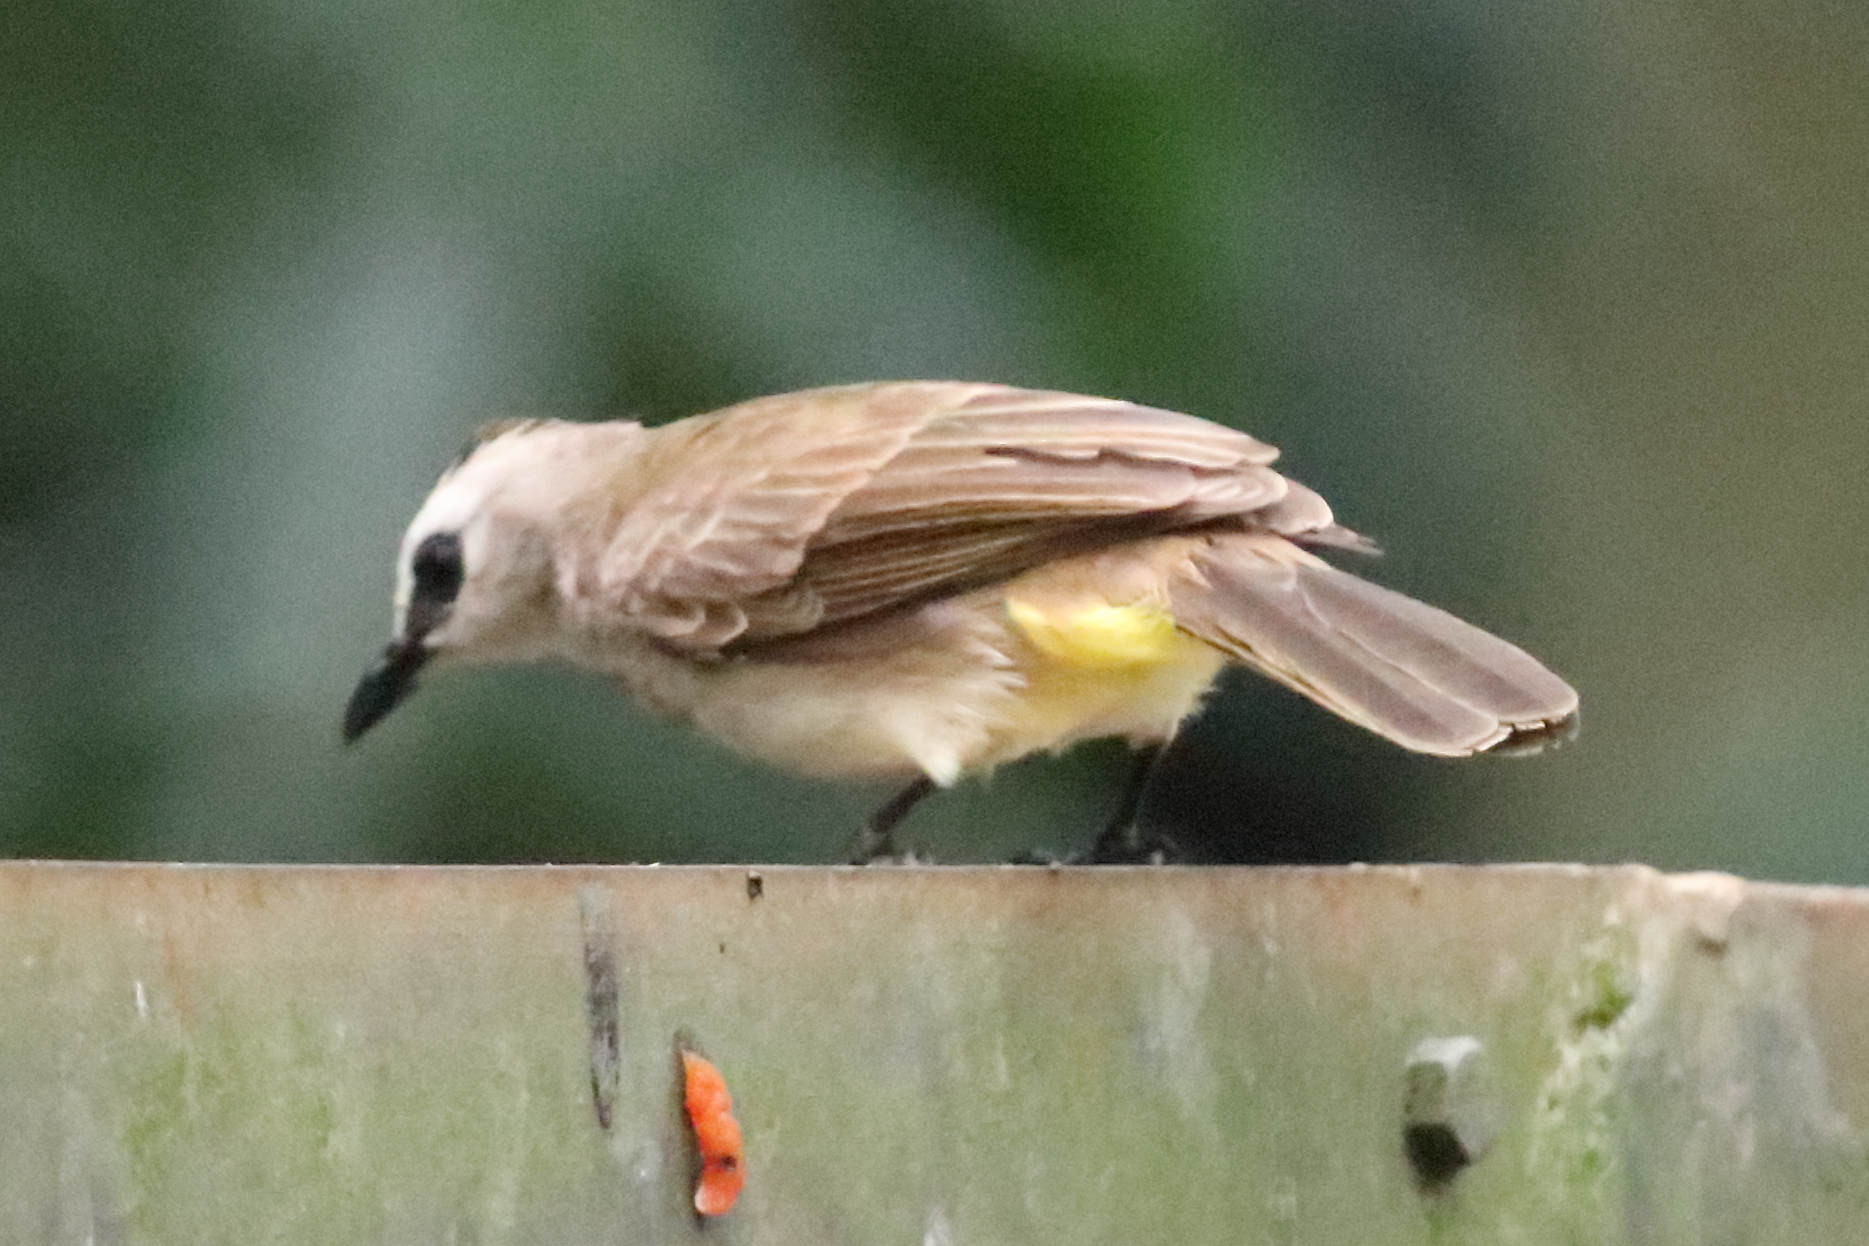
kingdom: Animalia
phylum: Chordata
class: Aves
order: Passeriformes
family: Pycnonotidae
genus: Pycnonotus
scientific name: Pycnonotus goiavier
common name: Yellow-vented bulbul
